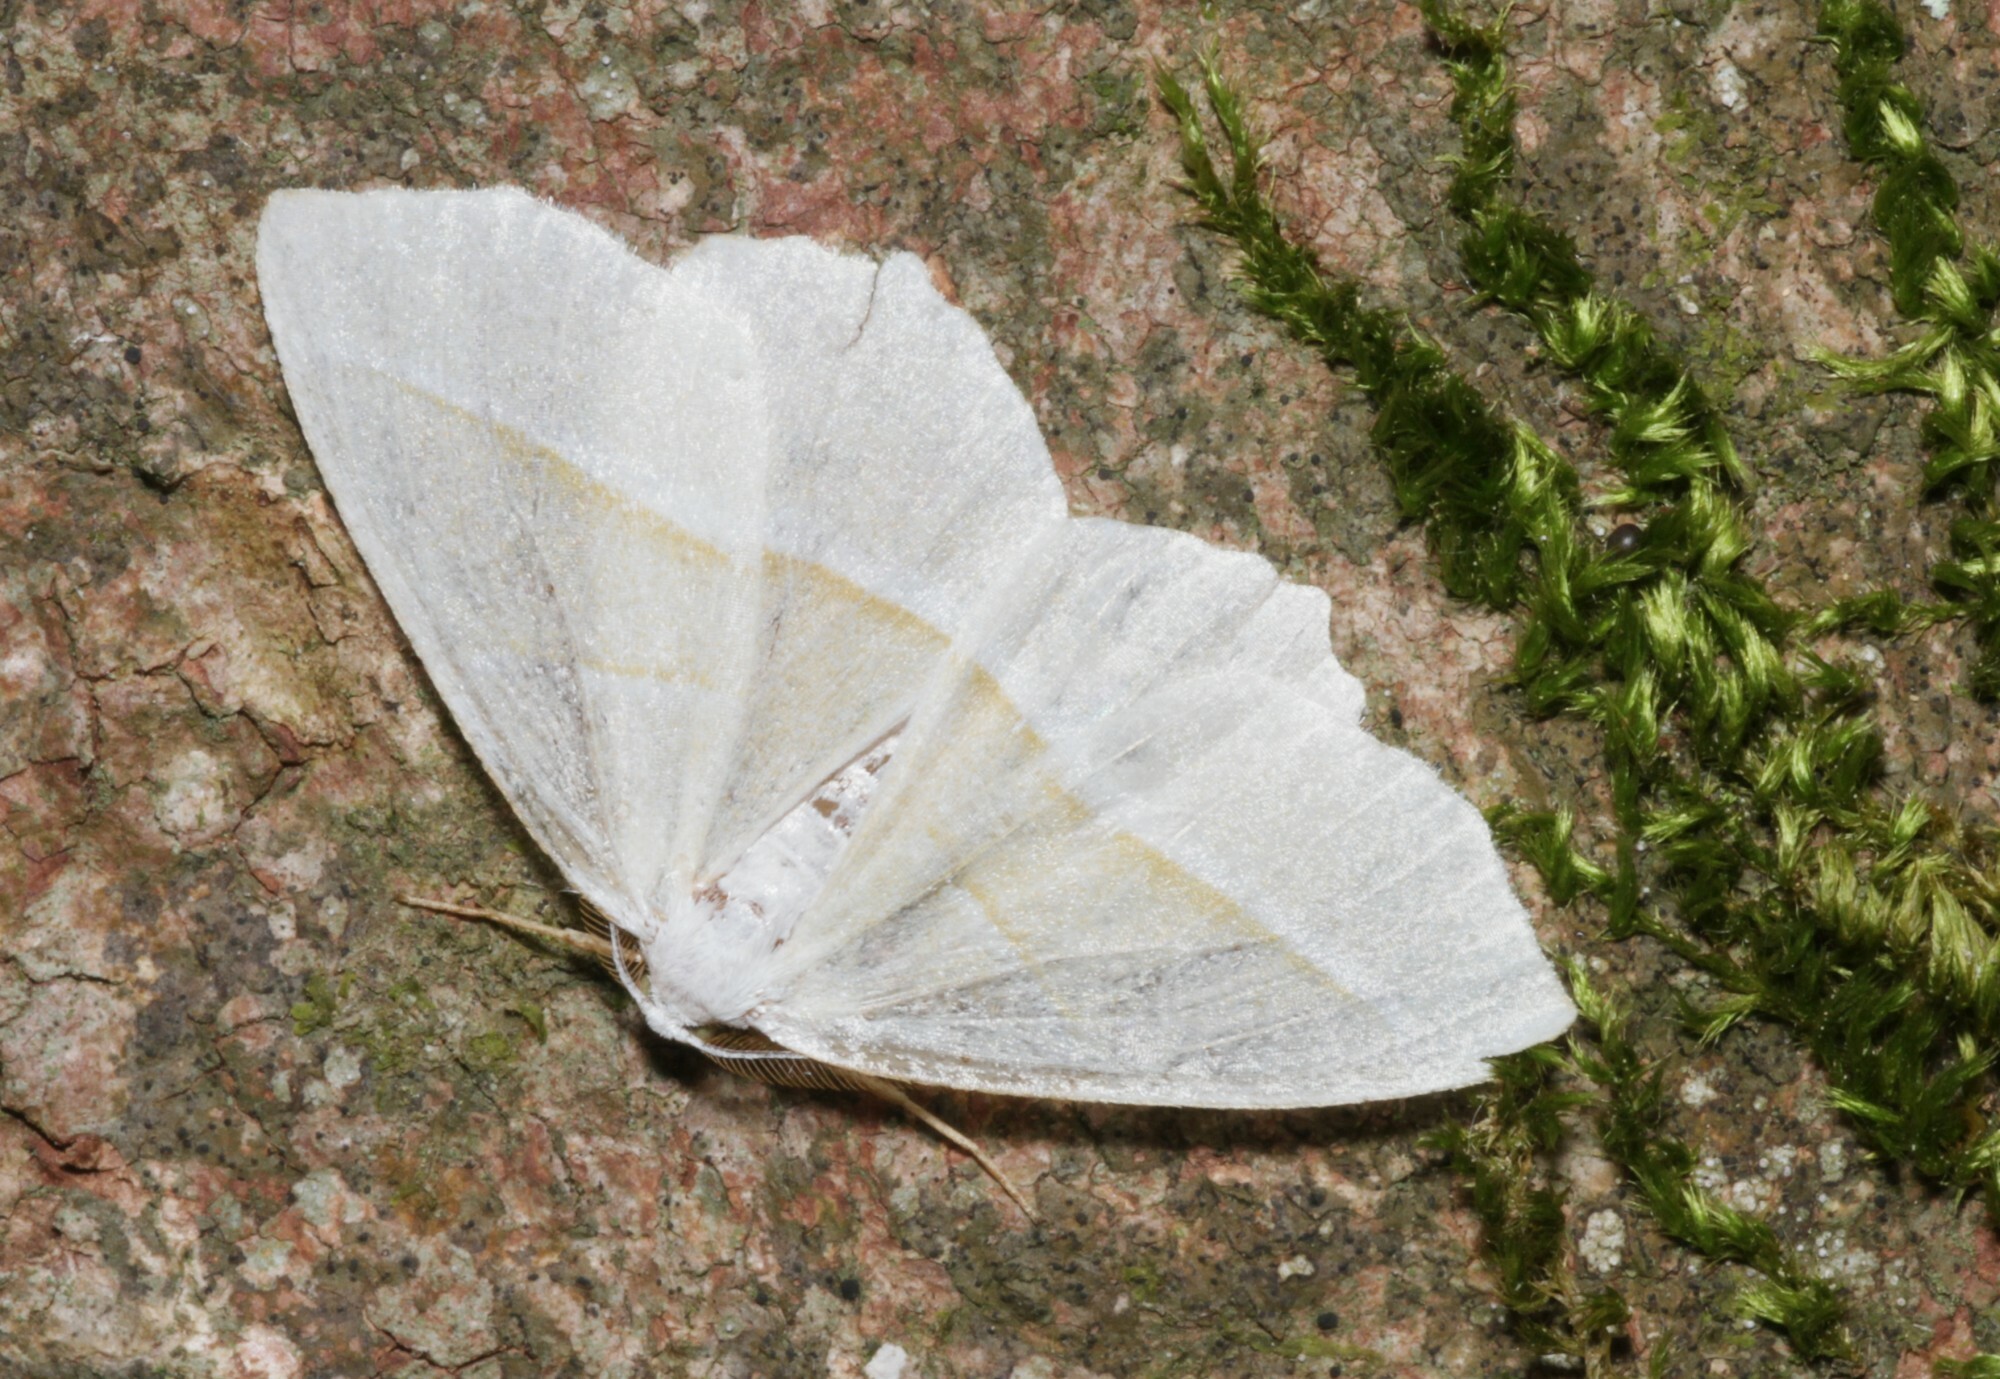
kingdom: Animalia
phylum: Arthropoda
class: Insecta
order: Lepidoptera
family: Geometridae
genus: Campaea
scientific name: Campaea margaritaria
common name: Light emerald
